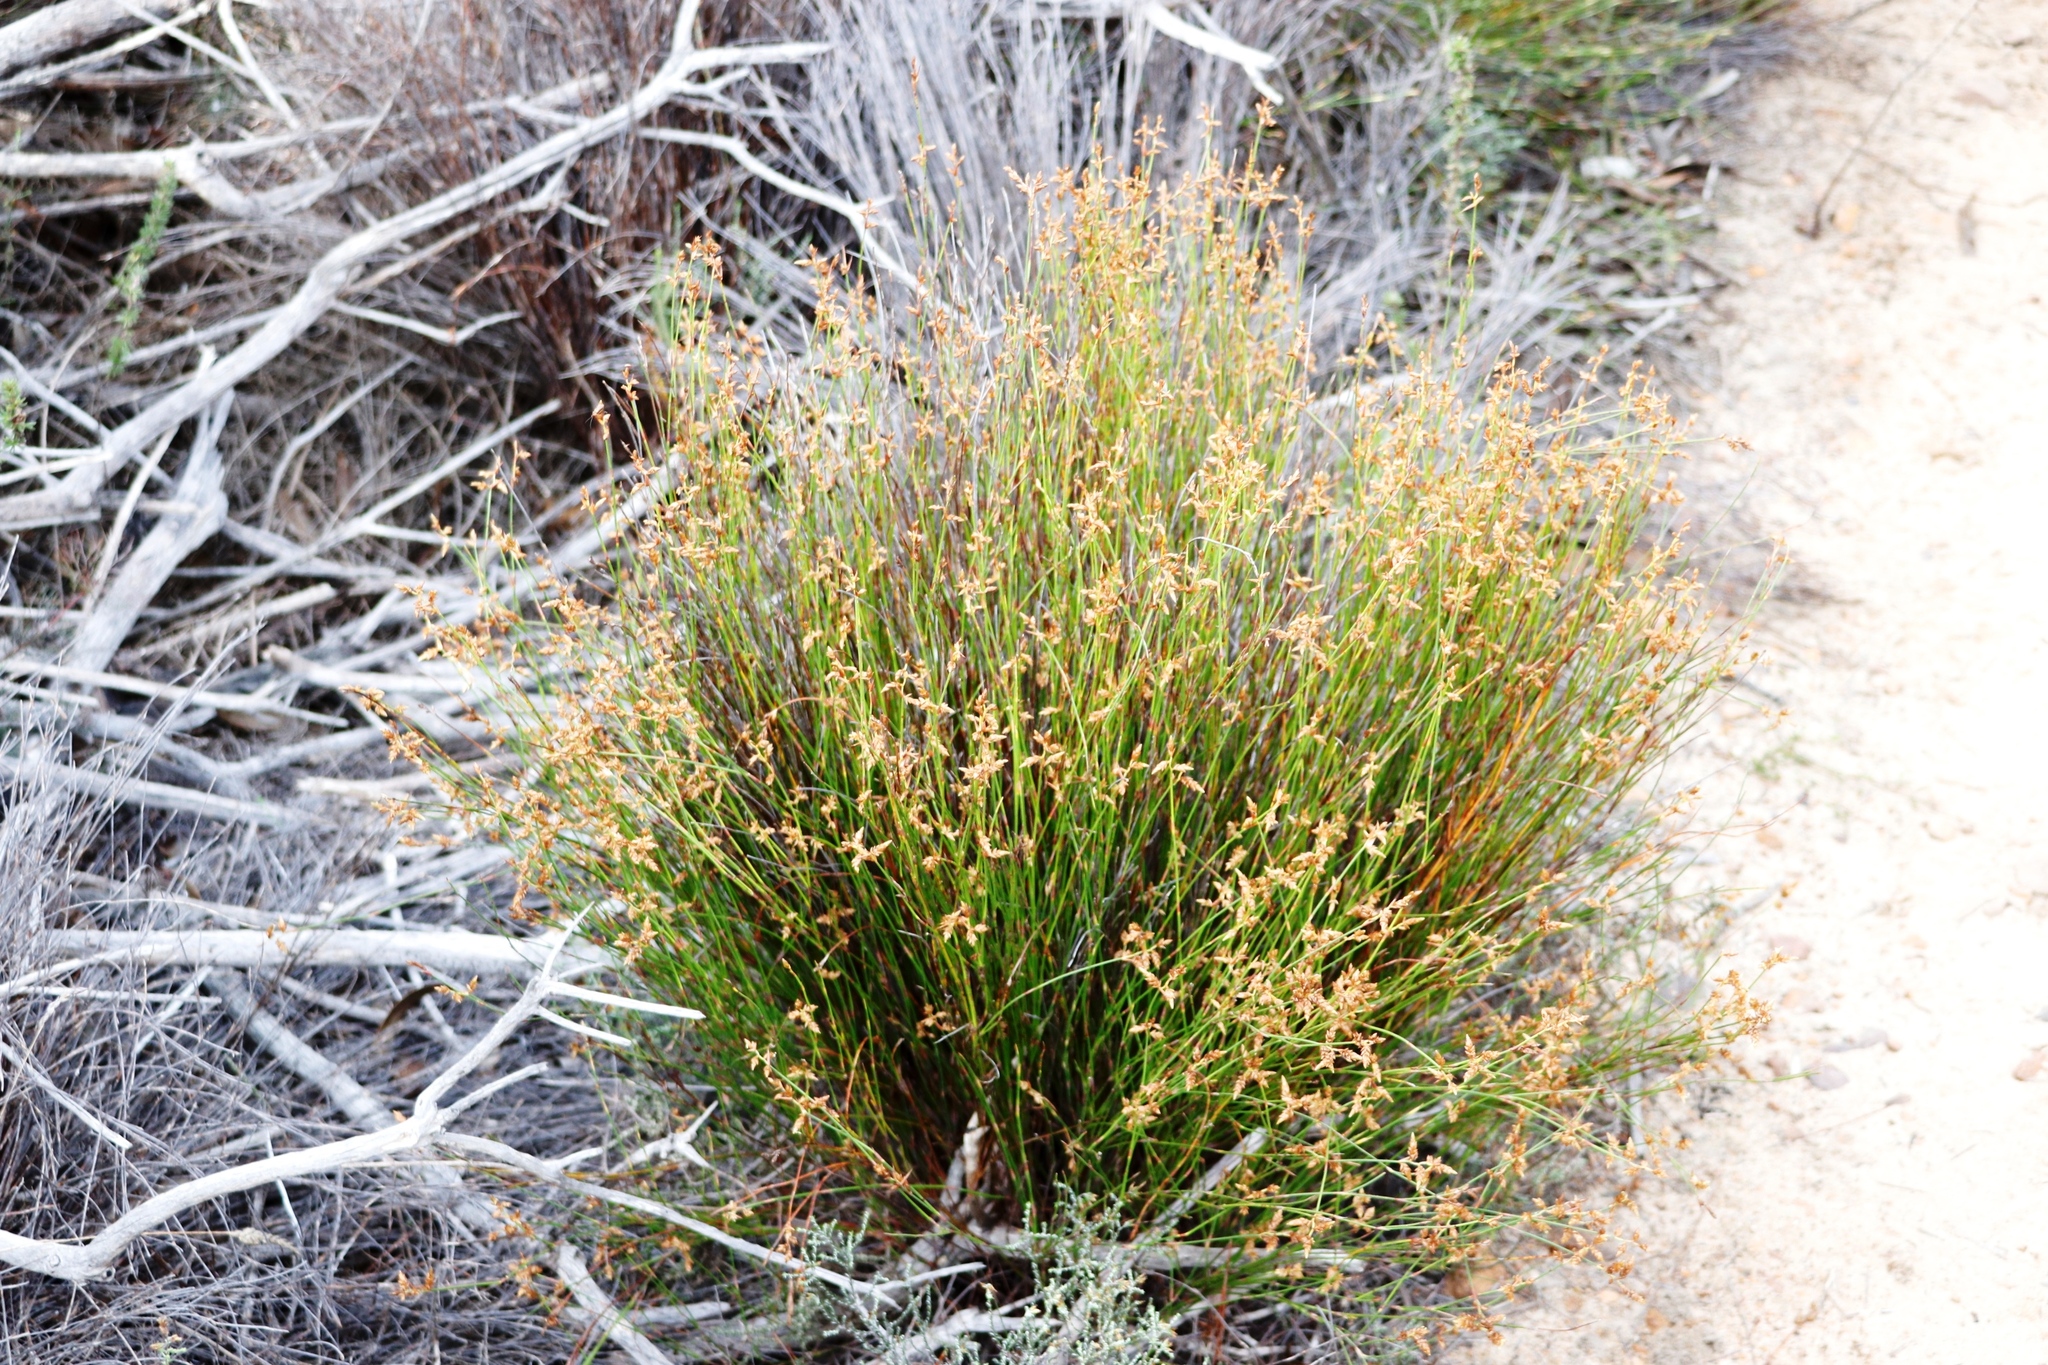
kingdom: Plantae
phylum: Tracheophyta
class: Liliopsida
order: Poales
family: Restionaceae
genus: Mastersiella
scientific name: Mastersiella digitata
